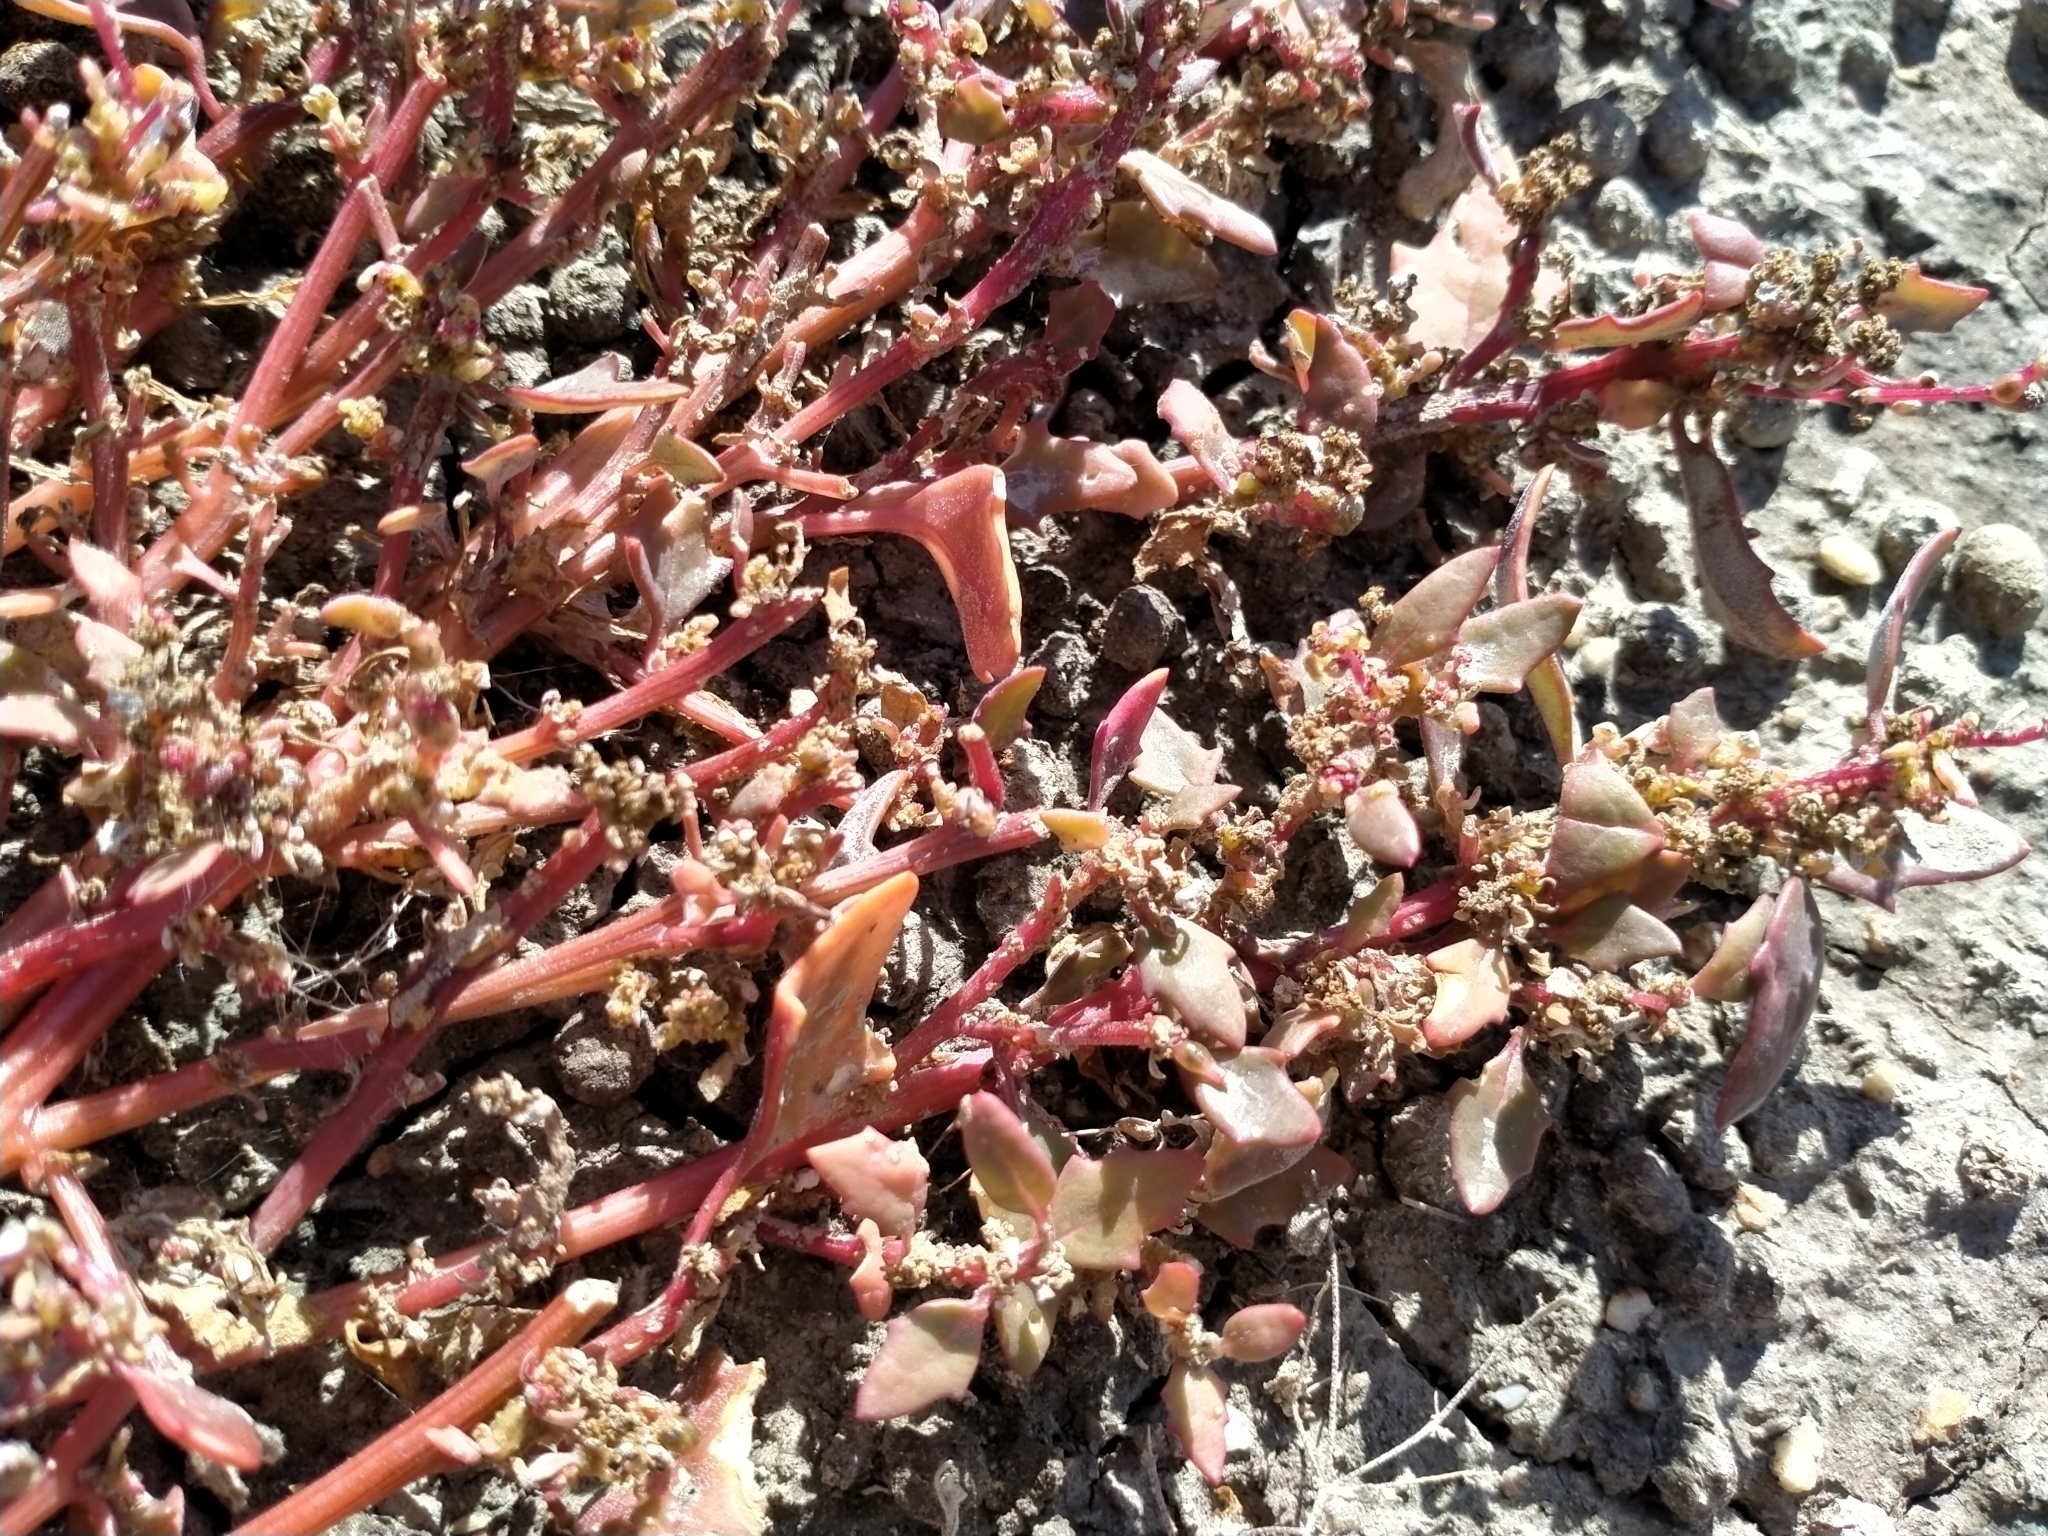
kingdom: Plantae
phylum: Tracheophyta
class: Magnoliopsida
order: Caryophyllales
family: Amaranthaceae
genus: Oxybasis
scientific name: Oxybasis ambigua
